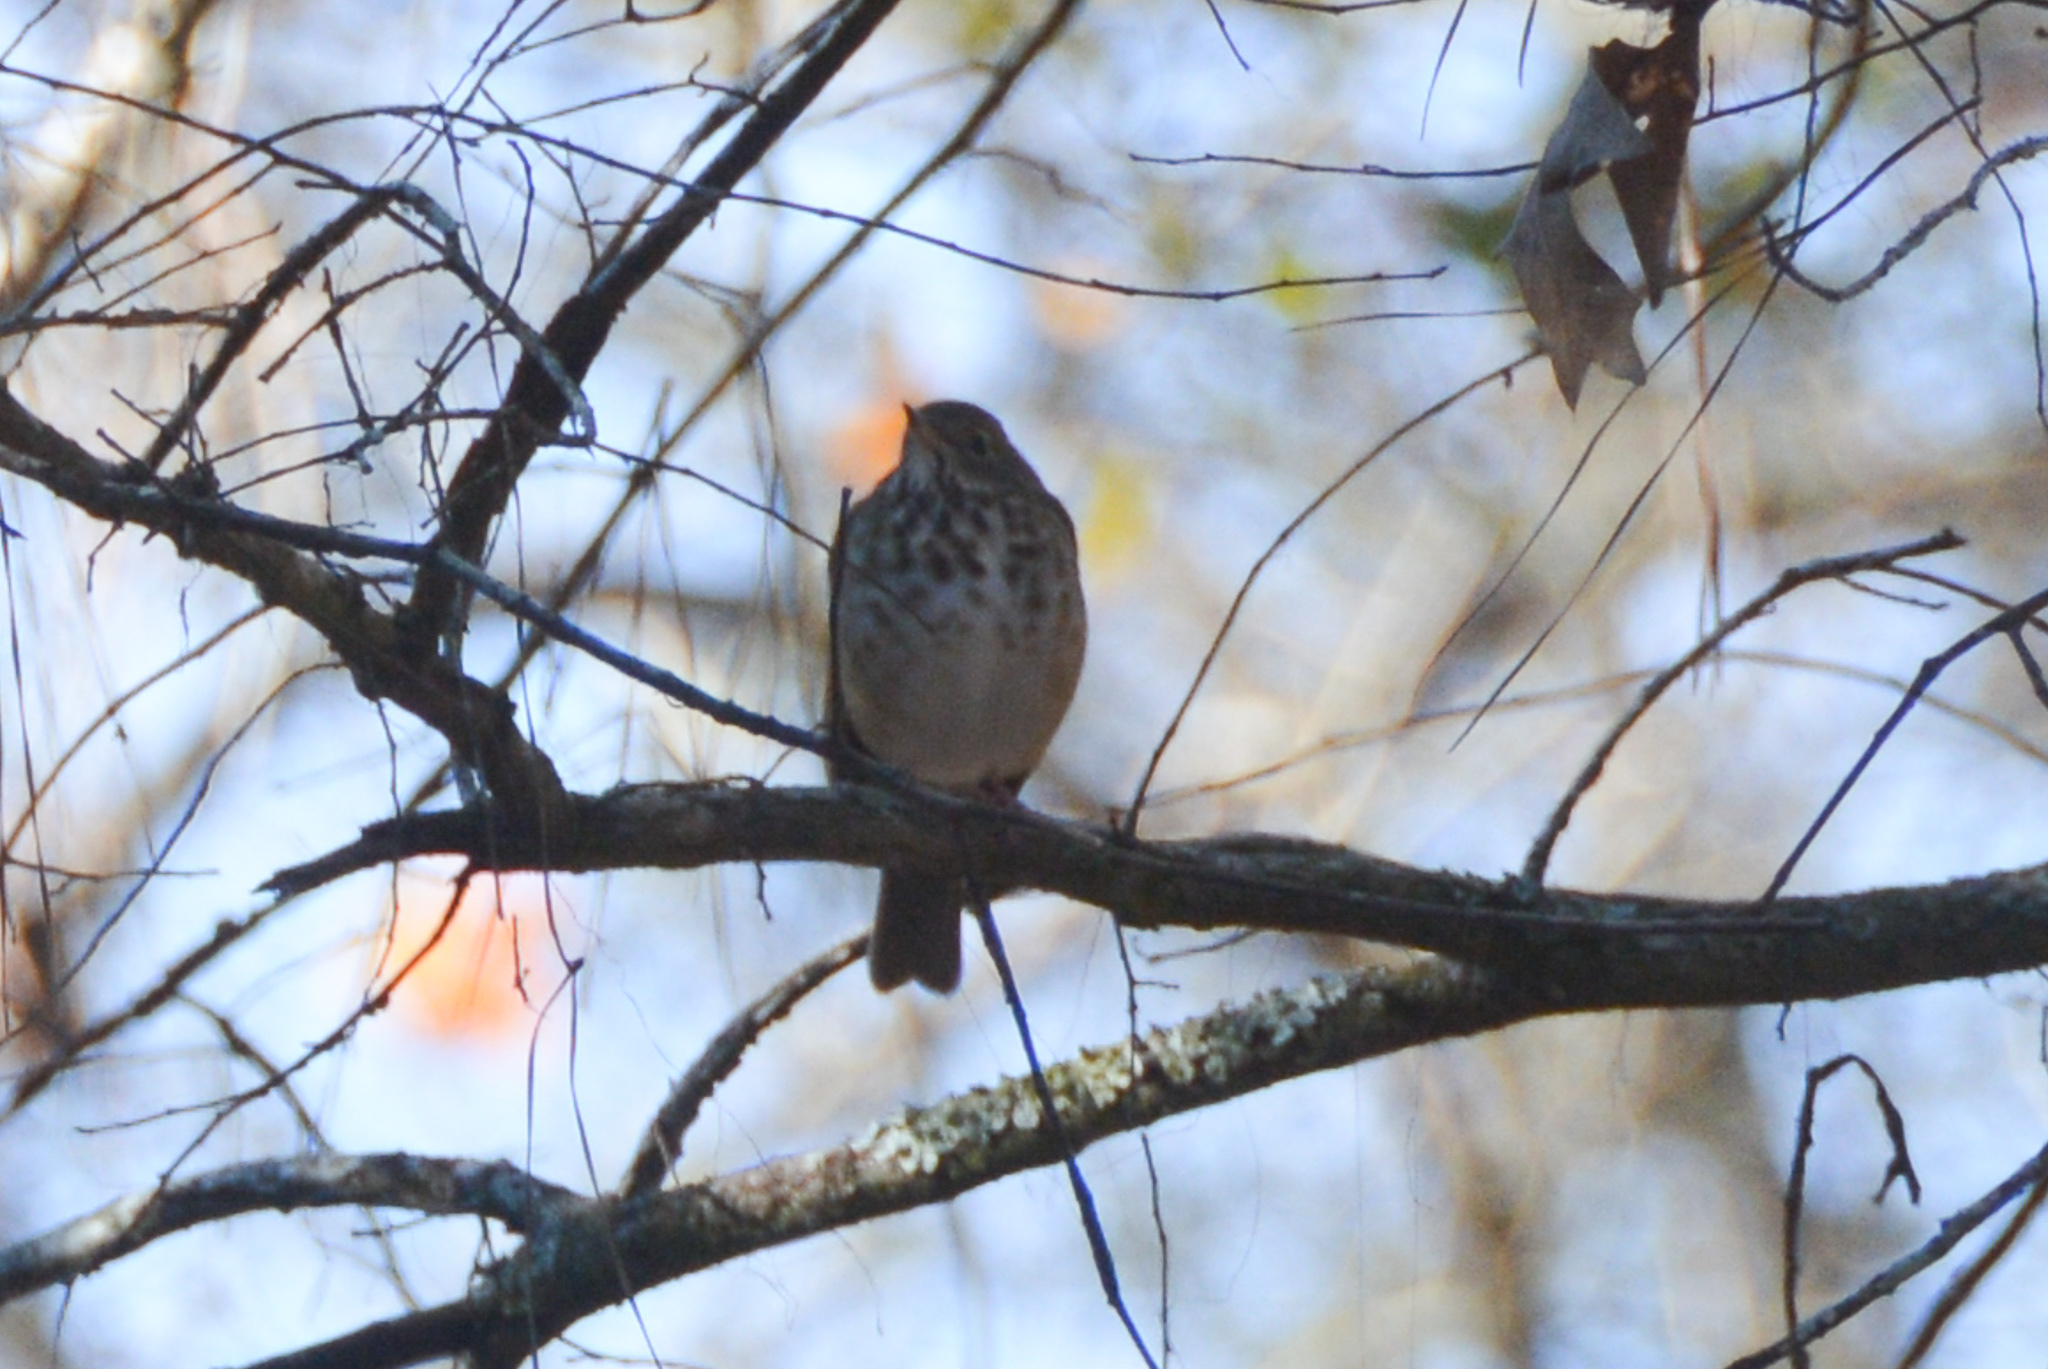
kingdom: Animalia
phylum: Chordata
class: Aves
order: Passeriformes
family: Turdidae
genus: Catharus
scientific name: Catharus guttatus
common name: Hermit thrush
